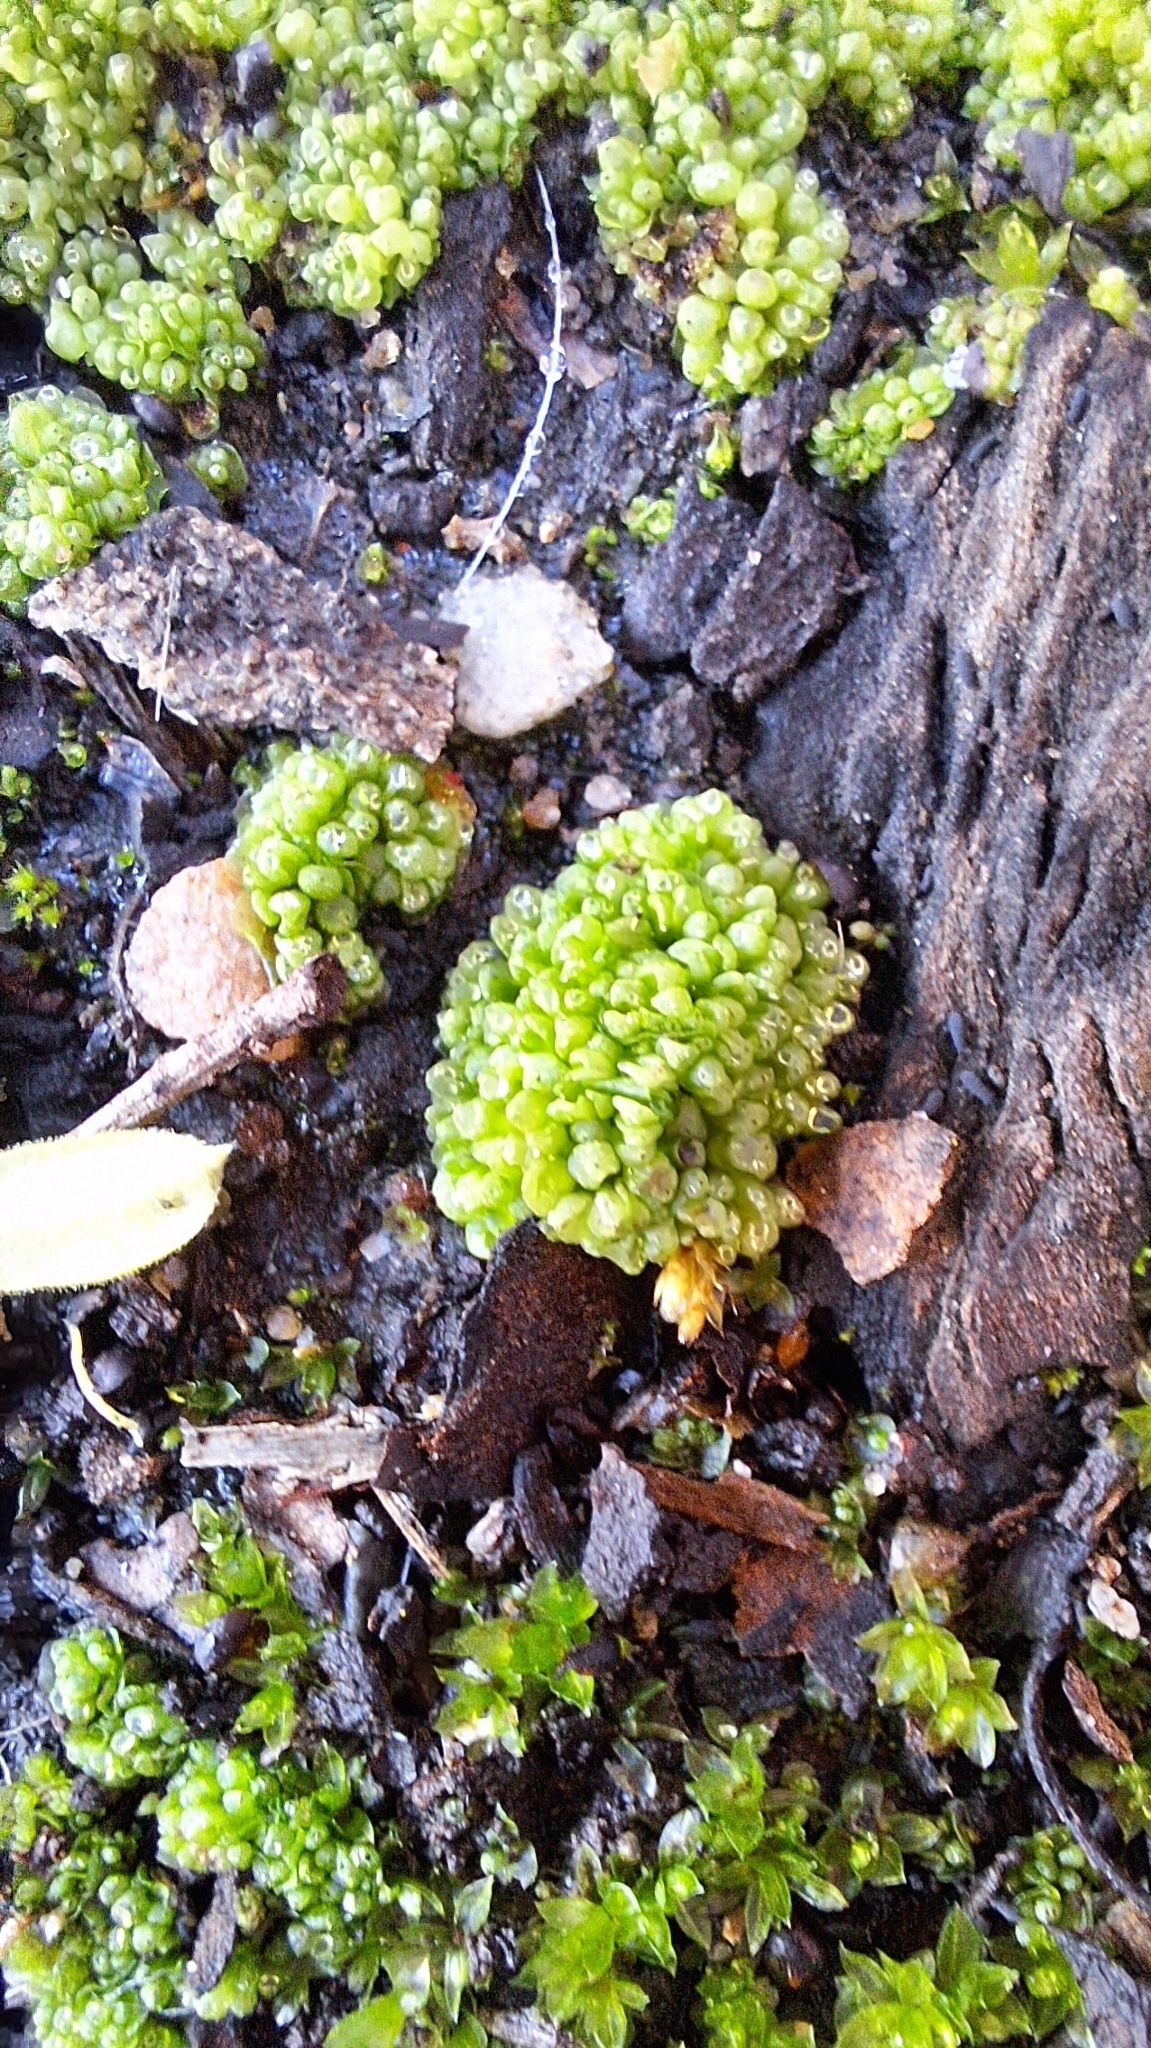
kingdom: Plantae
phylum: Marchantiophyta
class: Marchantiopsida
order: Sphaerocarpales
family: Sphaerocarpaceae
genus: Sphaerocarpos
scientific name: Sphaerocarpos texanus
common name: Texas balloonwort
